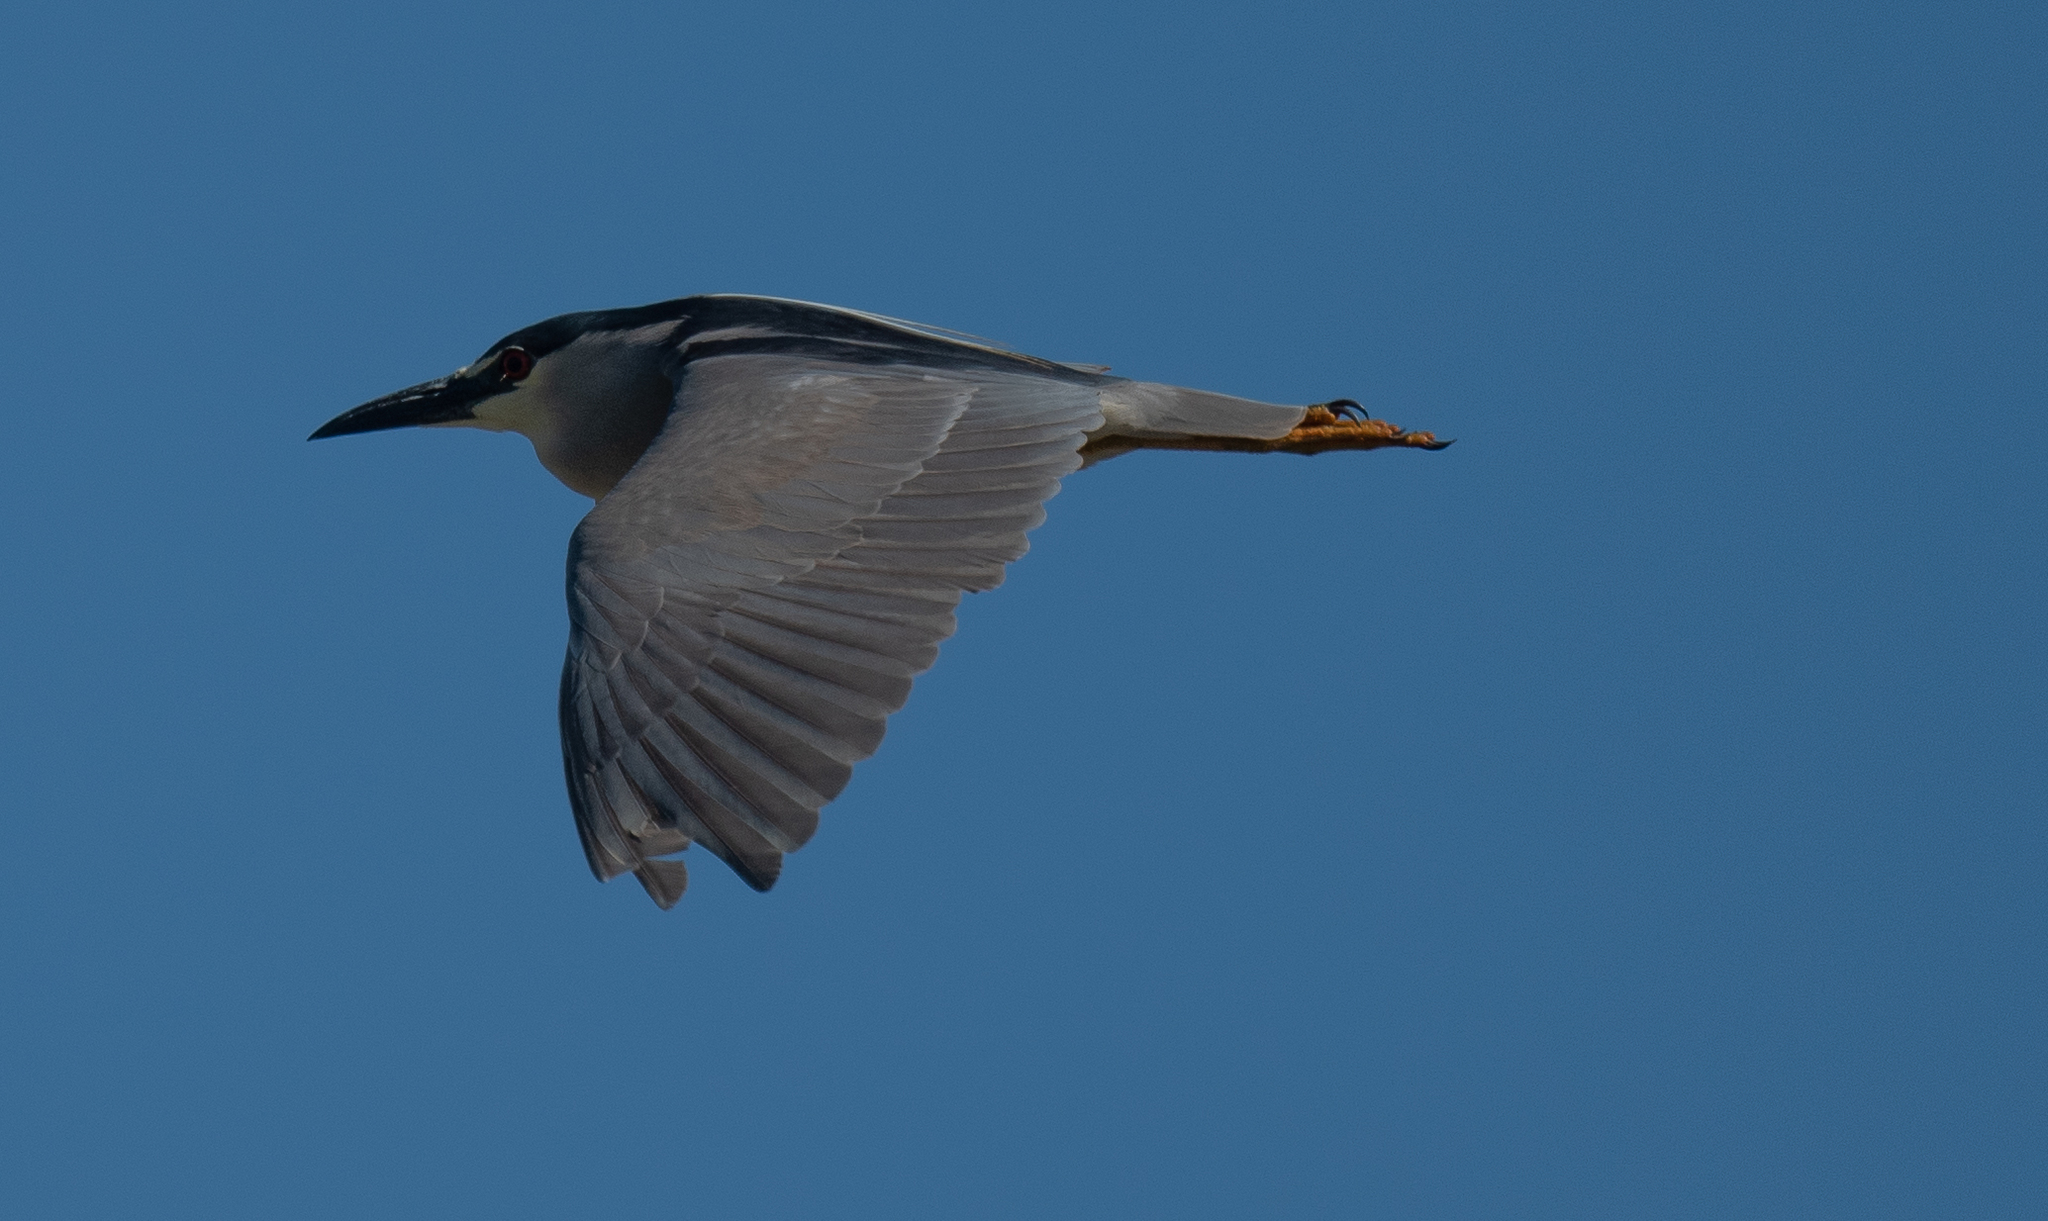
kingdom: Animalia
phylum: Chordata
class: Aves
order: Pelecaniformes
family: Ardeidae
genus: Nycticorax
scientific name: Nycticorax nycticorax
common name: Black-crowned night heron
